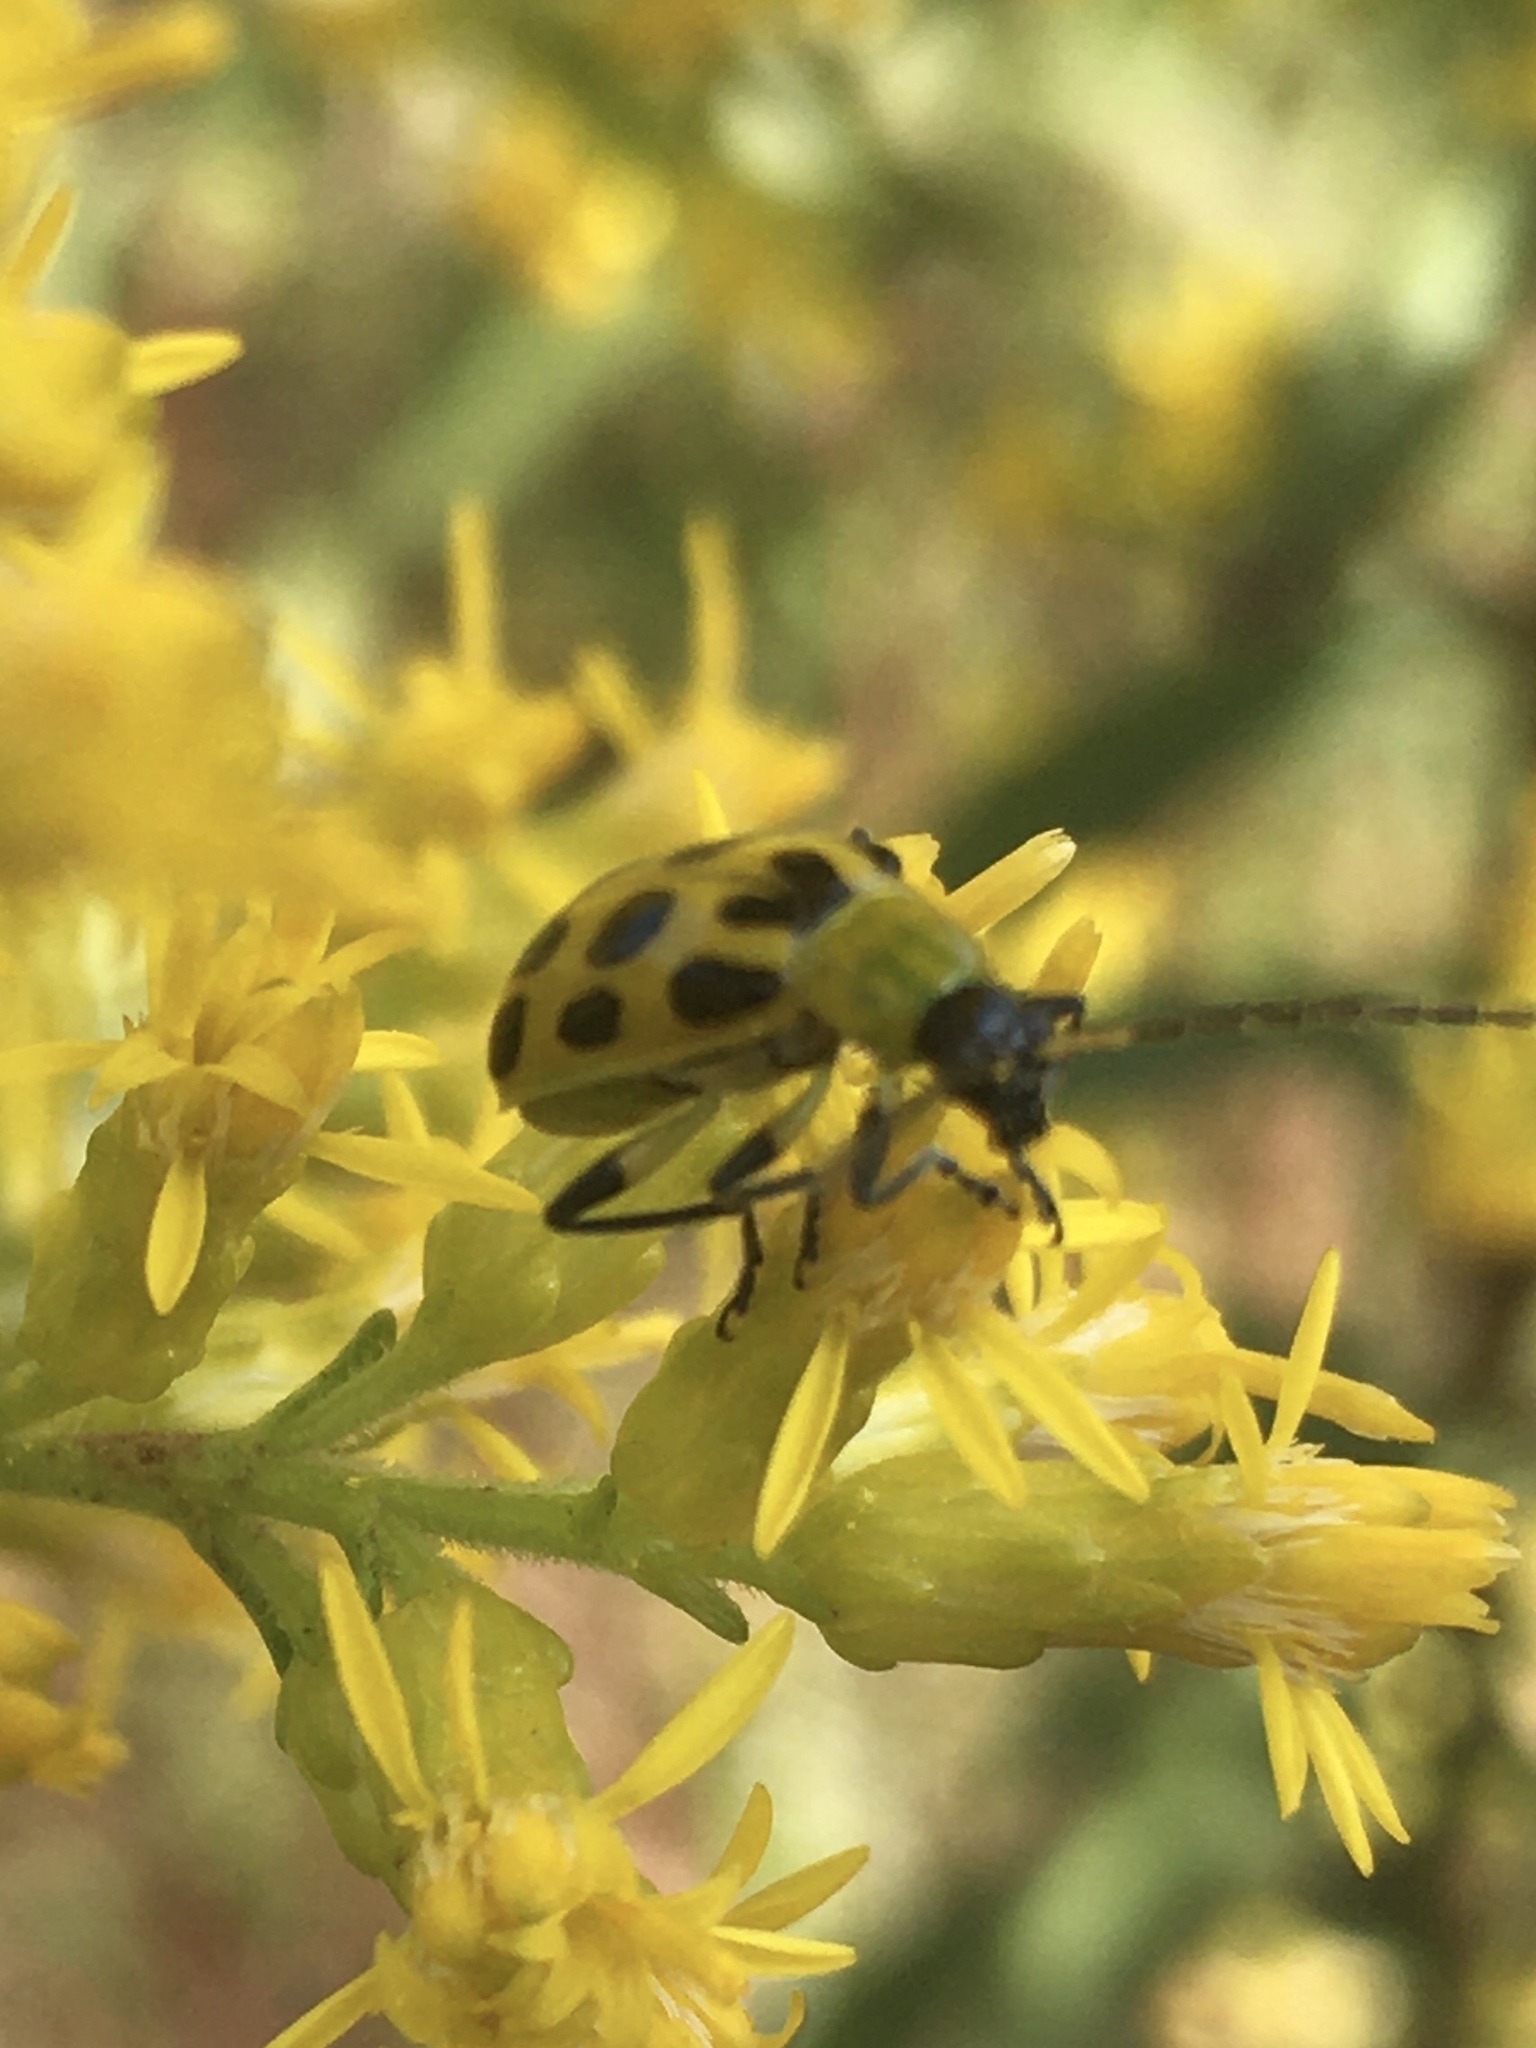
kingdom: Animalia
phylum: Arthropoda
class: Insecta
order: Coleoptera
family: Chrysomelidae
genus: Diabrotica
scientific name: Diabrotica undecimpunctata
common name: Spotted cucumber beetle
